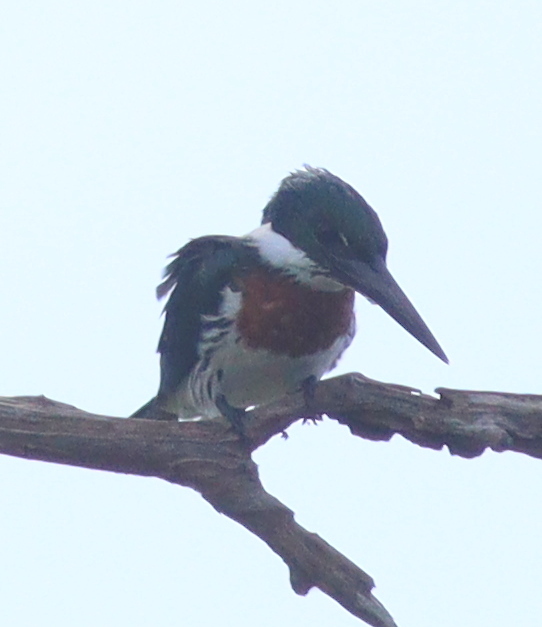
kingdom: Animalia
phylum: Chordata
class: Aves
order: Coraciiformes
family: Alcedinidae
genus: Chloroceryle
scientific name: Chloroceryle amazona
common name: Amazon kingfisher
